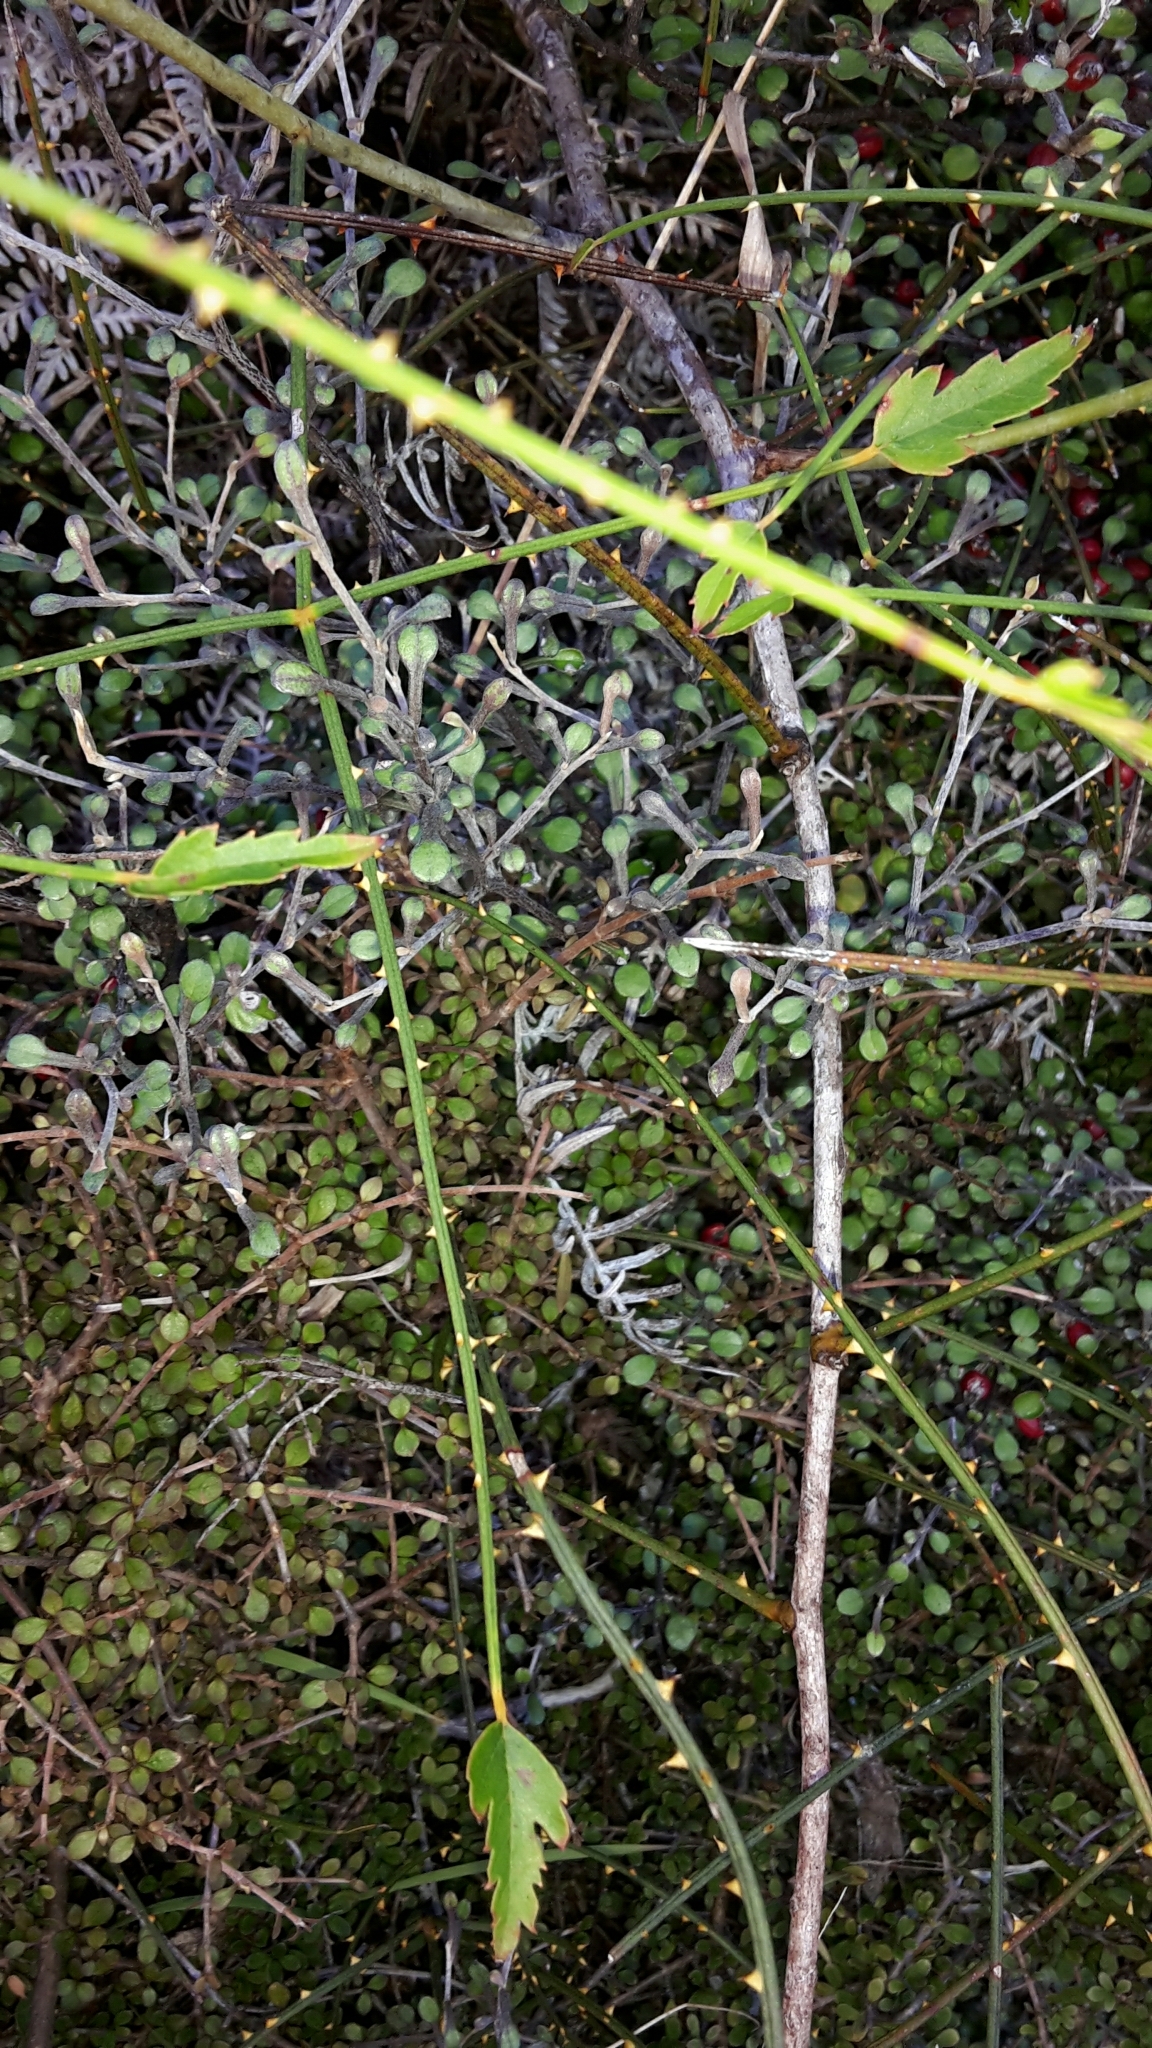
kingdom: Plantae
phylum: Tracheophyta
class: Magnoliopsida
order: Rosales
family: Rosaceae
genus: Rubus
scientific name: Rubus squarrosus
